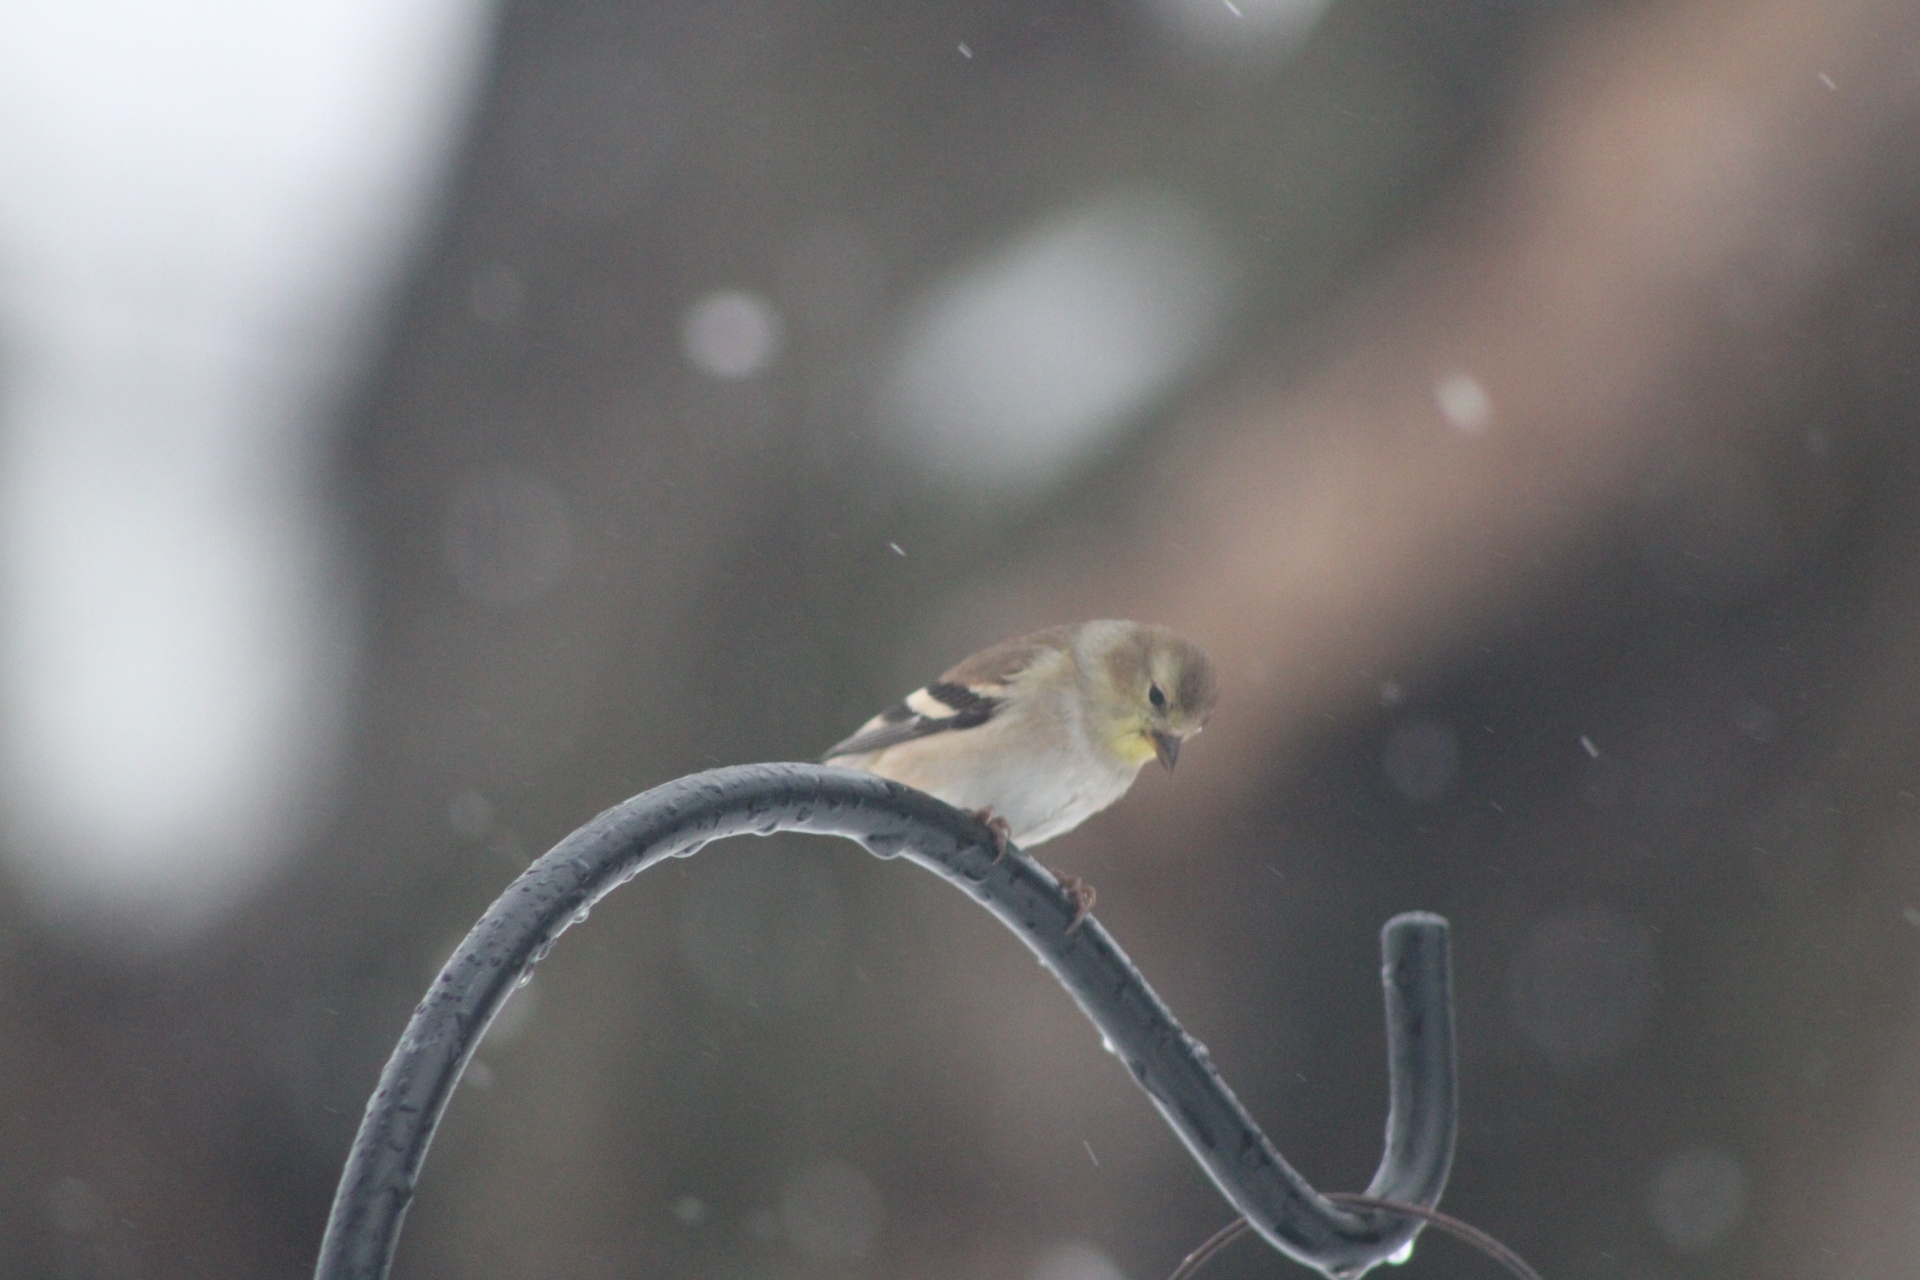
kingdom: Animalia
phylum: Chordata
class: Aves
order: Passeriformes
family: Fringillidae
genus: Spinus
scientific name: Spinus tristis
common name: American goldfinch
